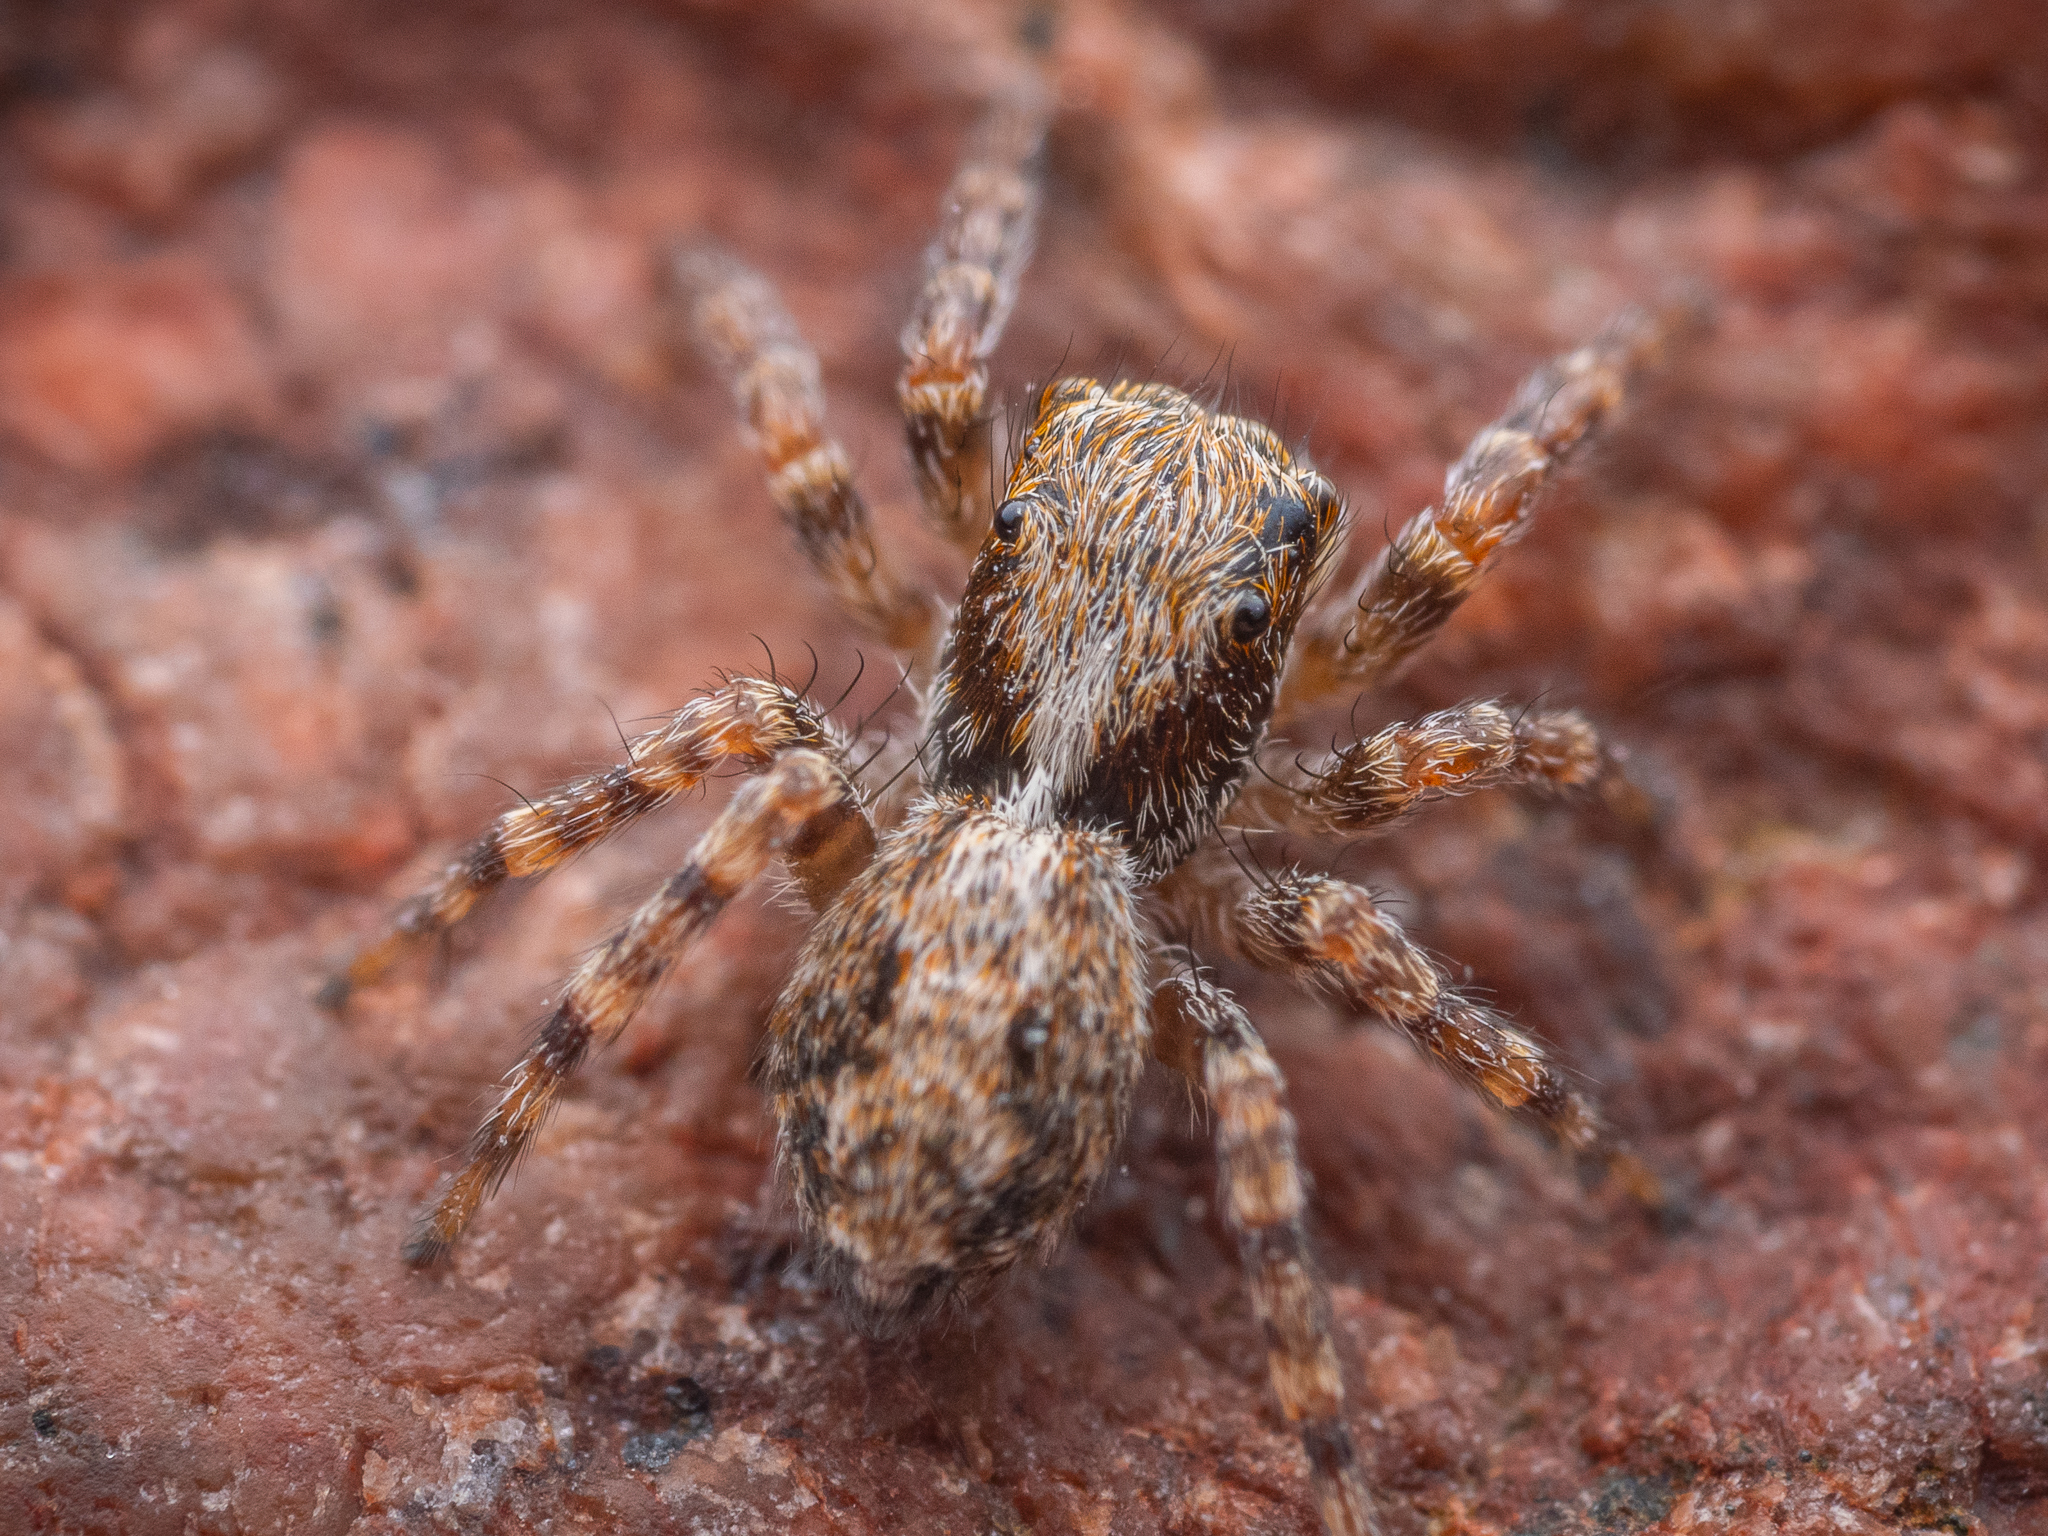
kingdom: Animalia
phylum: Arthropoda
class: Arachnida
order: Araneae
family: Salticidae
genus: Pseudeuophrys
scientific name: Pseudeuophrys lanigera
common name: Jumping spider
